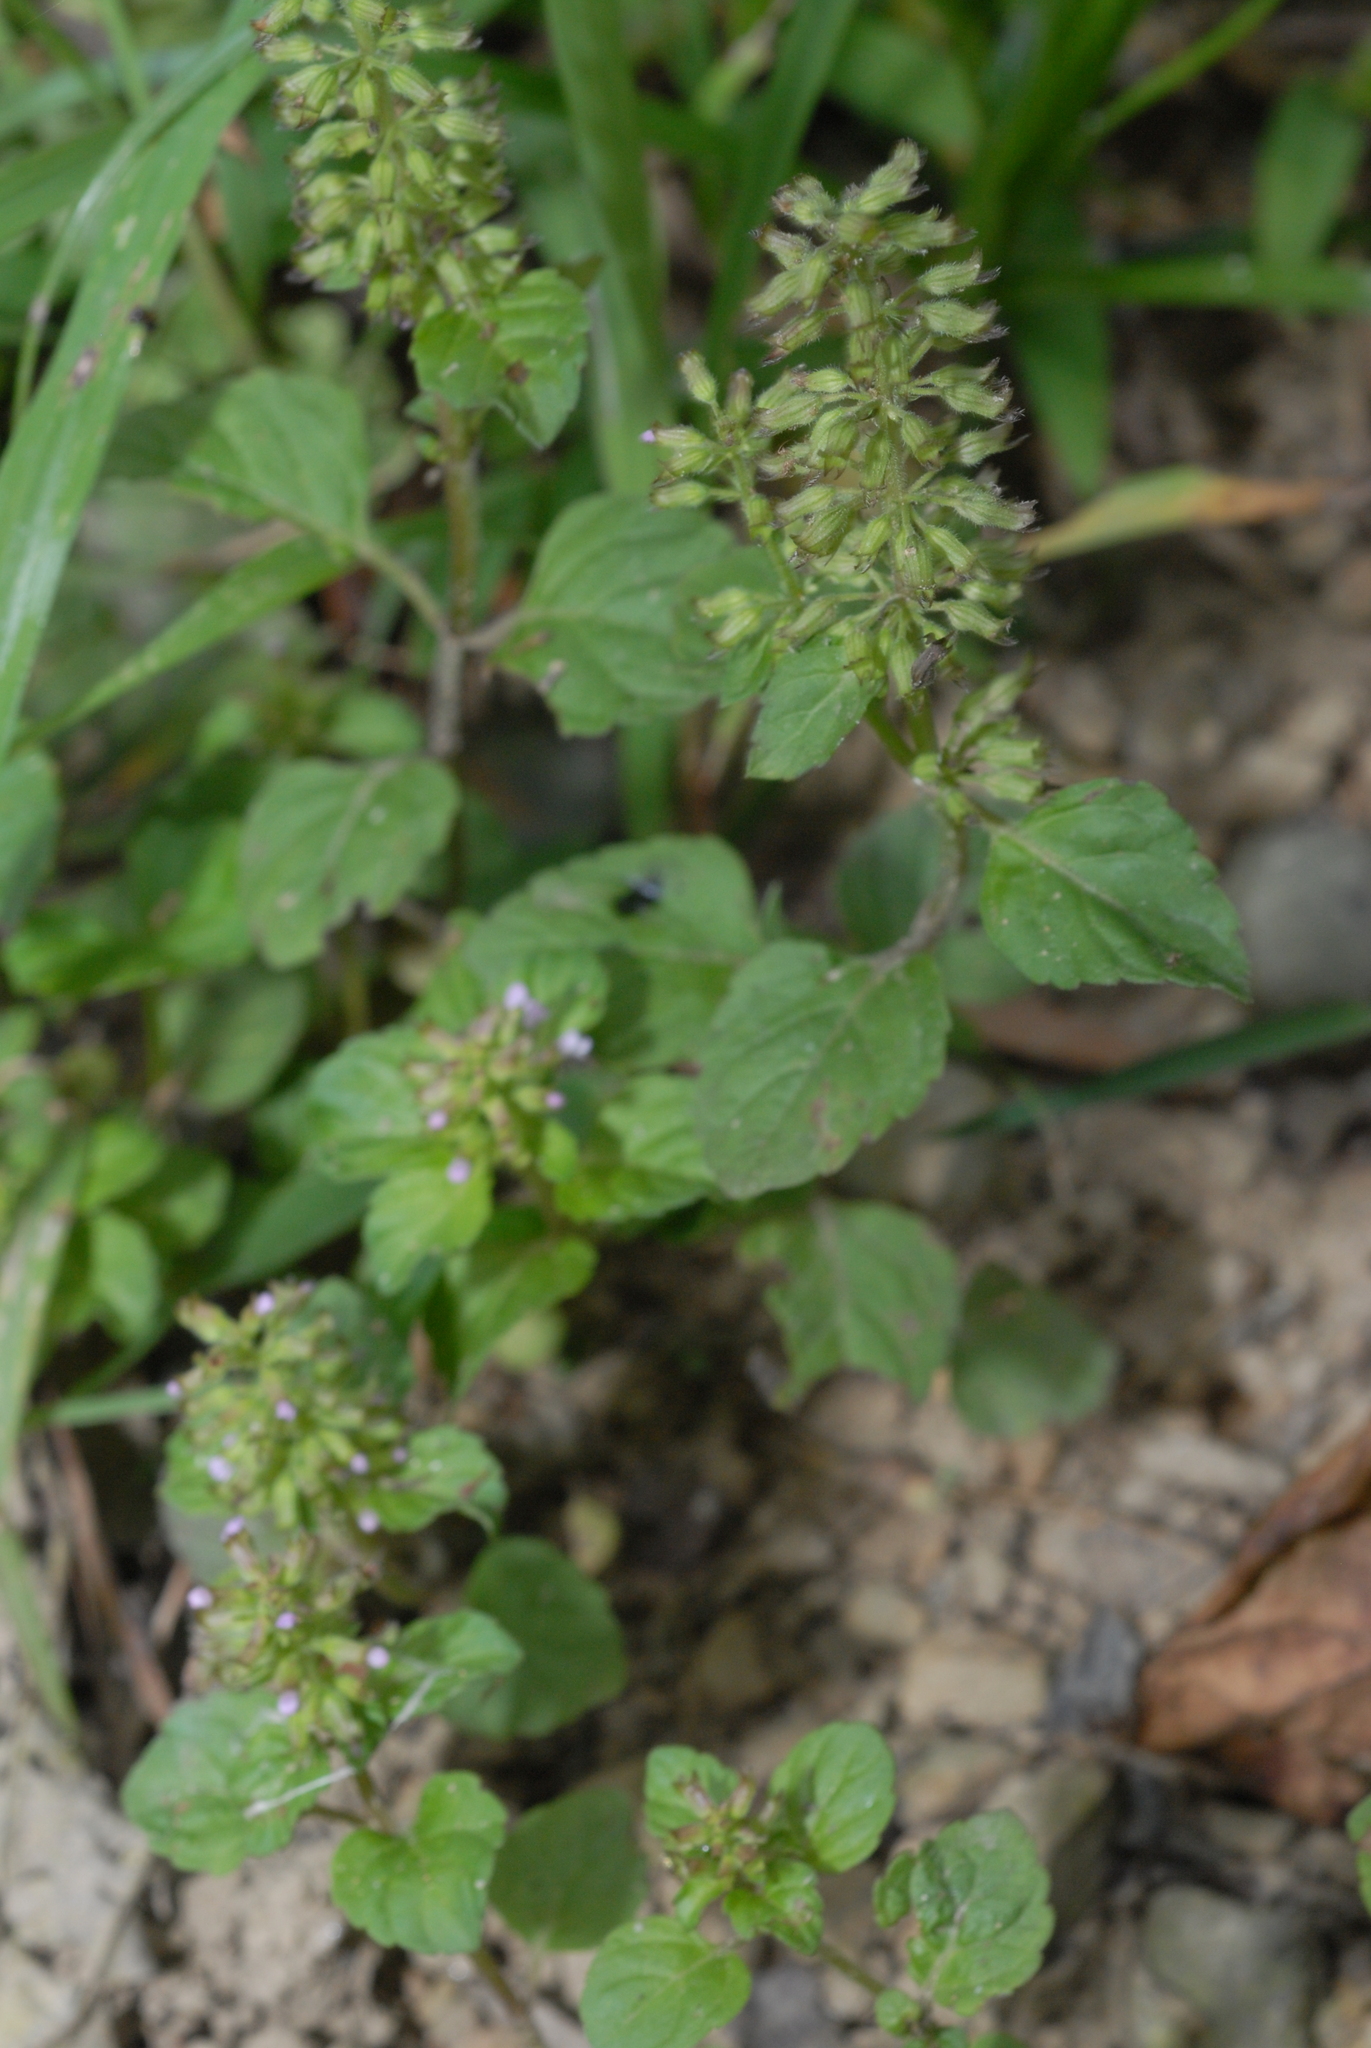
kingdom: Plantae
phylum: Tracheophyta
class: Magnoliopsida
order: Lamiales
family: Lamiaceae
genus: Clinopodium
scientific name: Clinopodium gracile
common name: Slender wild basil
